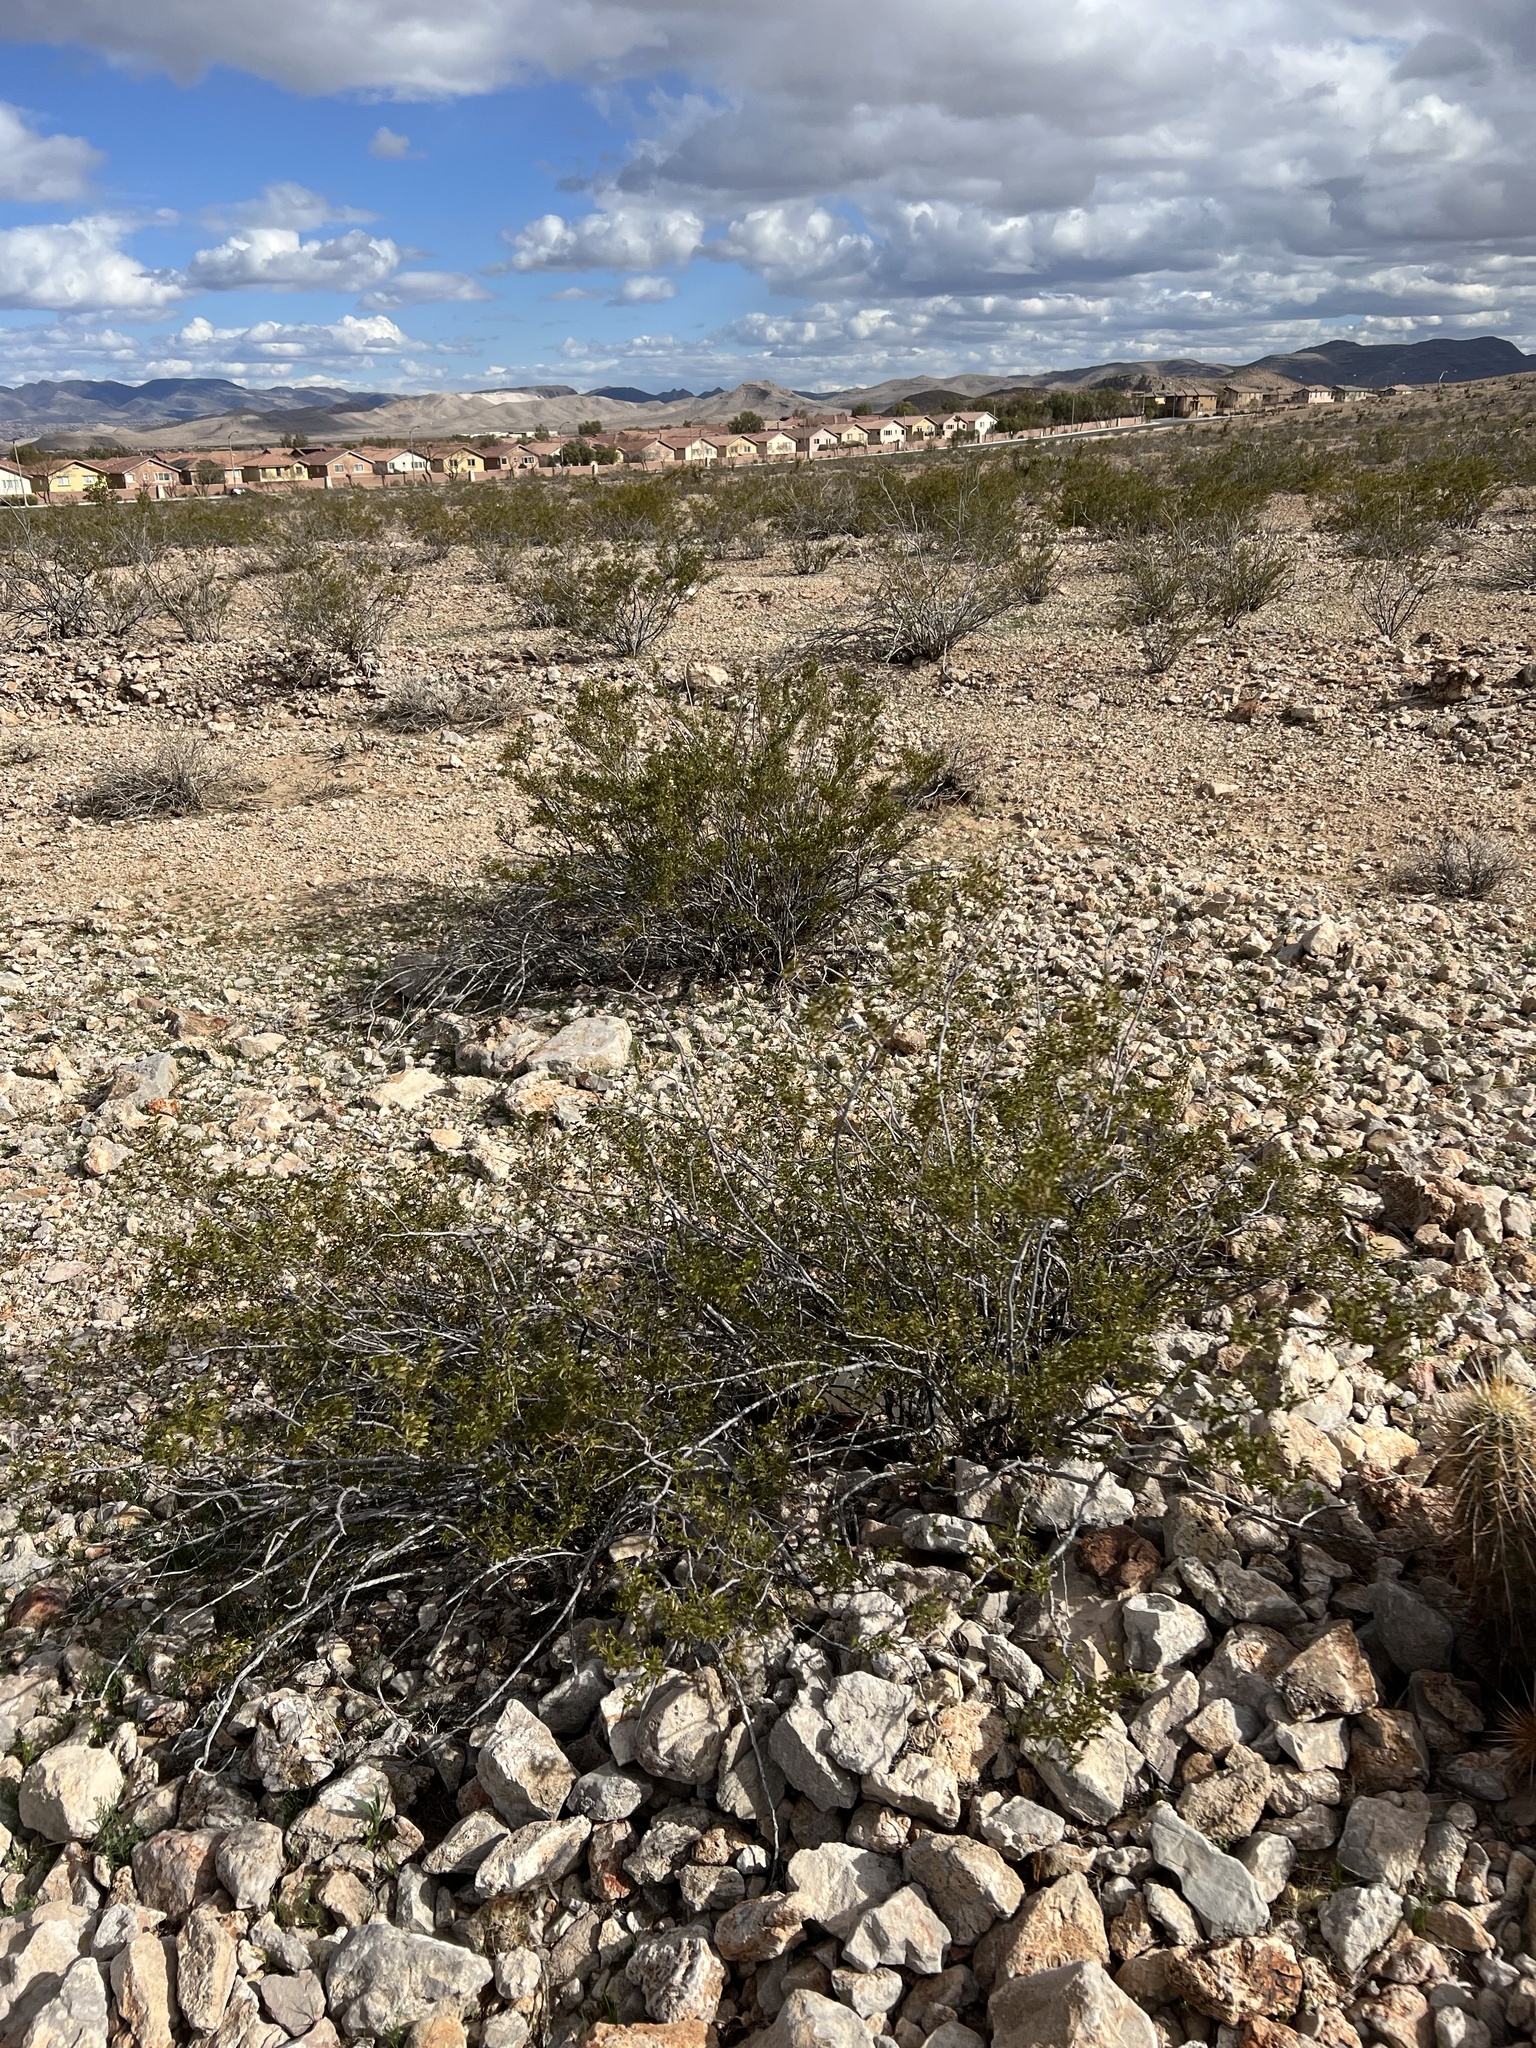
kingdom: Plantae
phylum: Tracheophyta
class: Magnoliopsida
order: Zygophyllales
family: Zygophyllaceae
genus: Larrea
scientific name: Larrea tridentata
